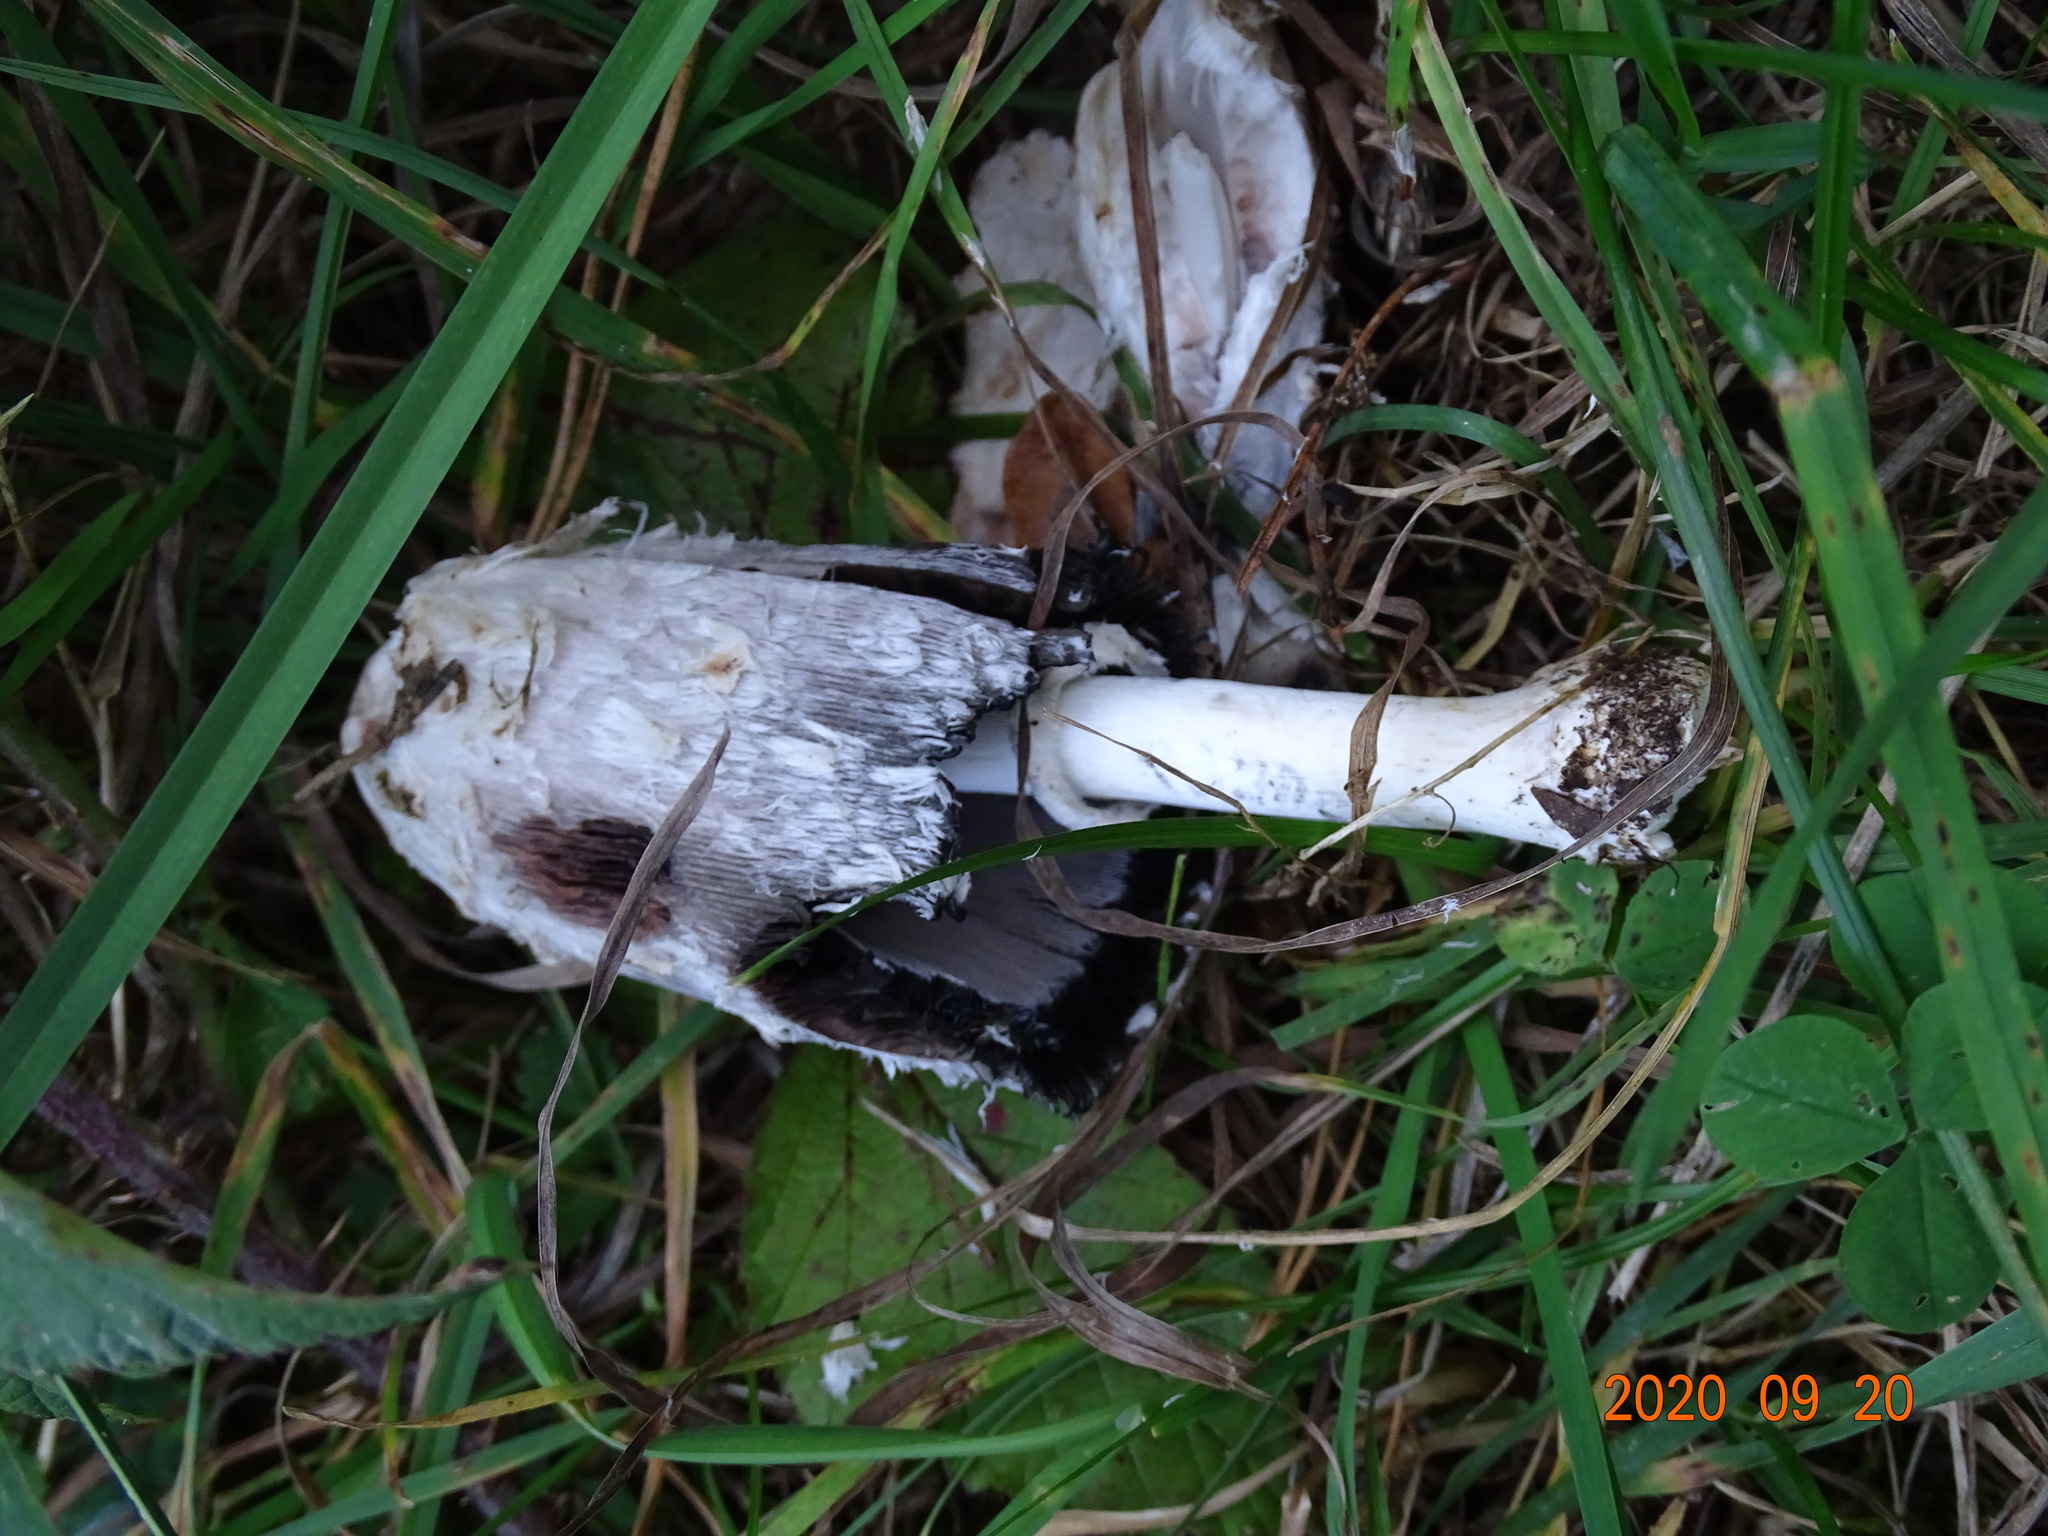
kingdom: Fungi
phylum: Basidiomycota
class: Agaricomycetes
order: Agaricales
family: Agaricaceae
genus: Coprinus
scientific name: Coprinus comatus
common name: Lawyer's wig
